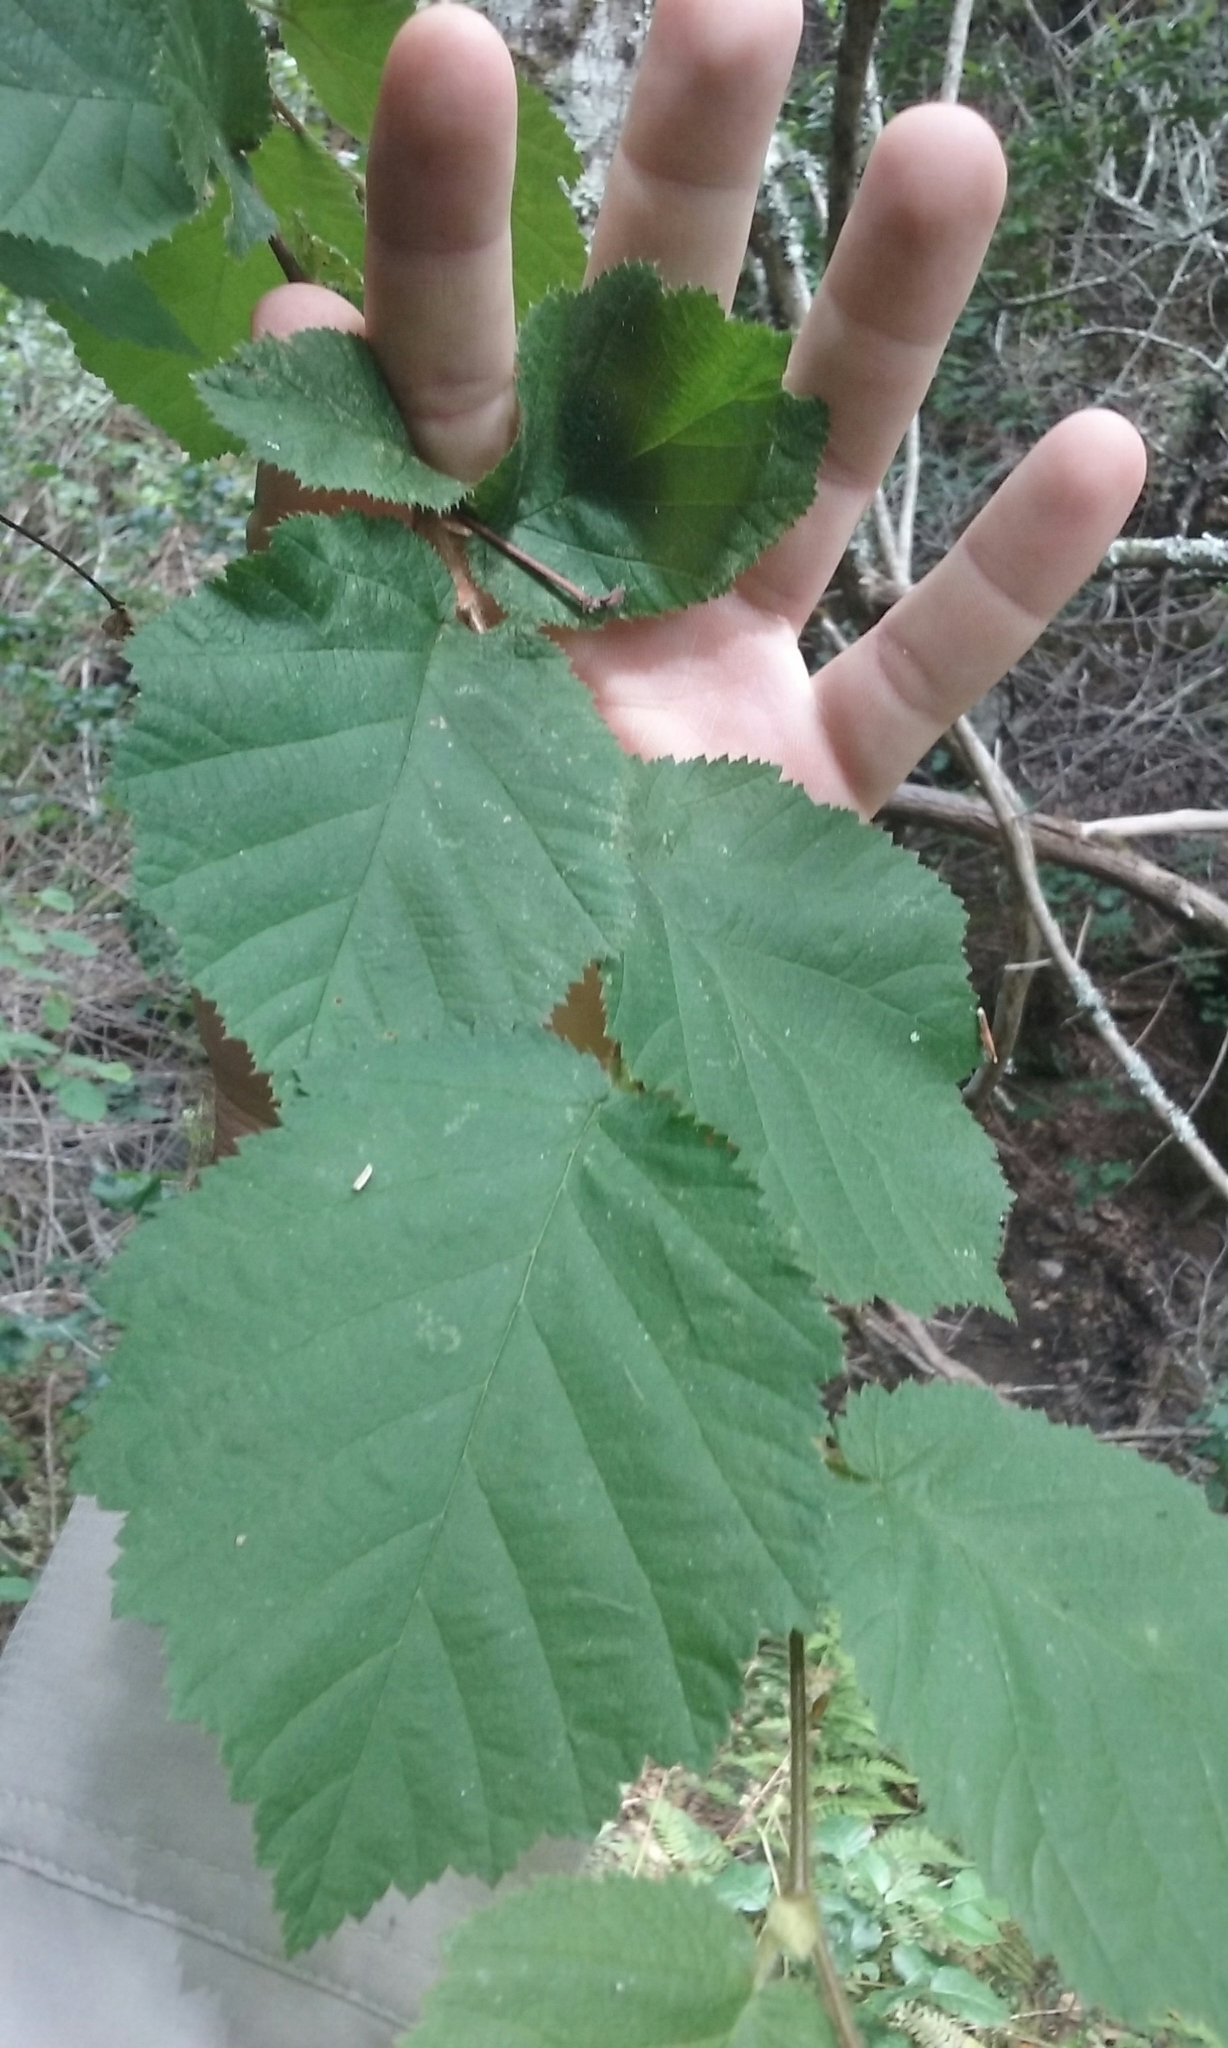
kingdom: Plantae
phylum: Tracheophyta
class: Magnoliopsida
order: Fagales
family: Betulaceae
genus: Corylus
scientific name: Corylus cornuta
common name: Beaked hazel
